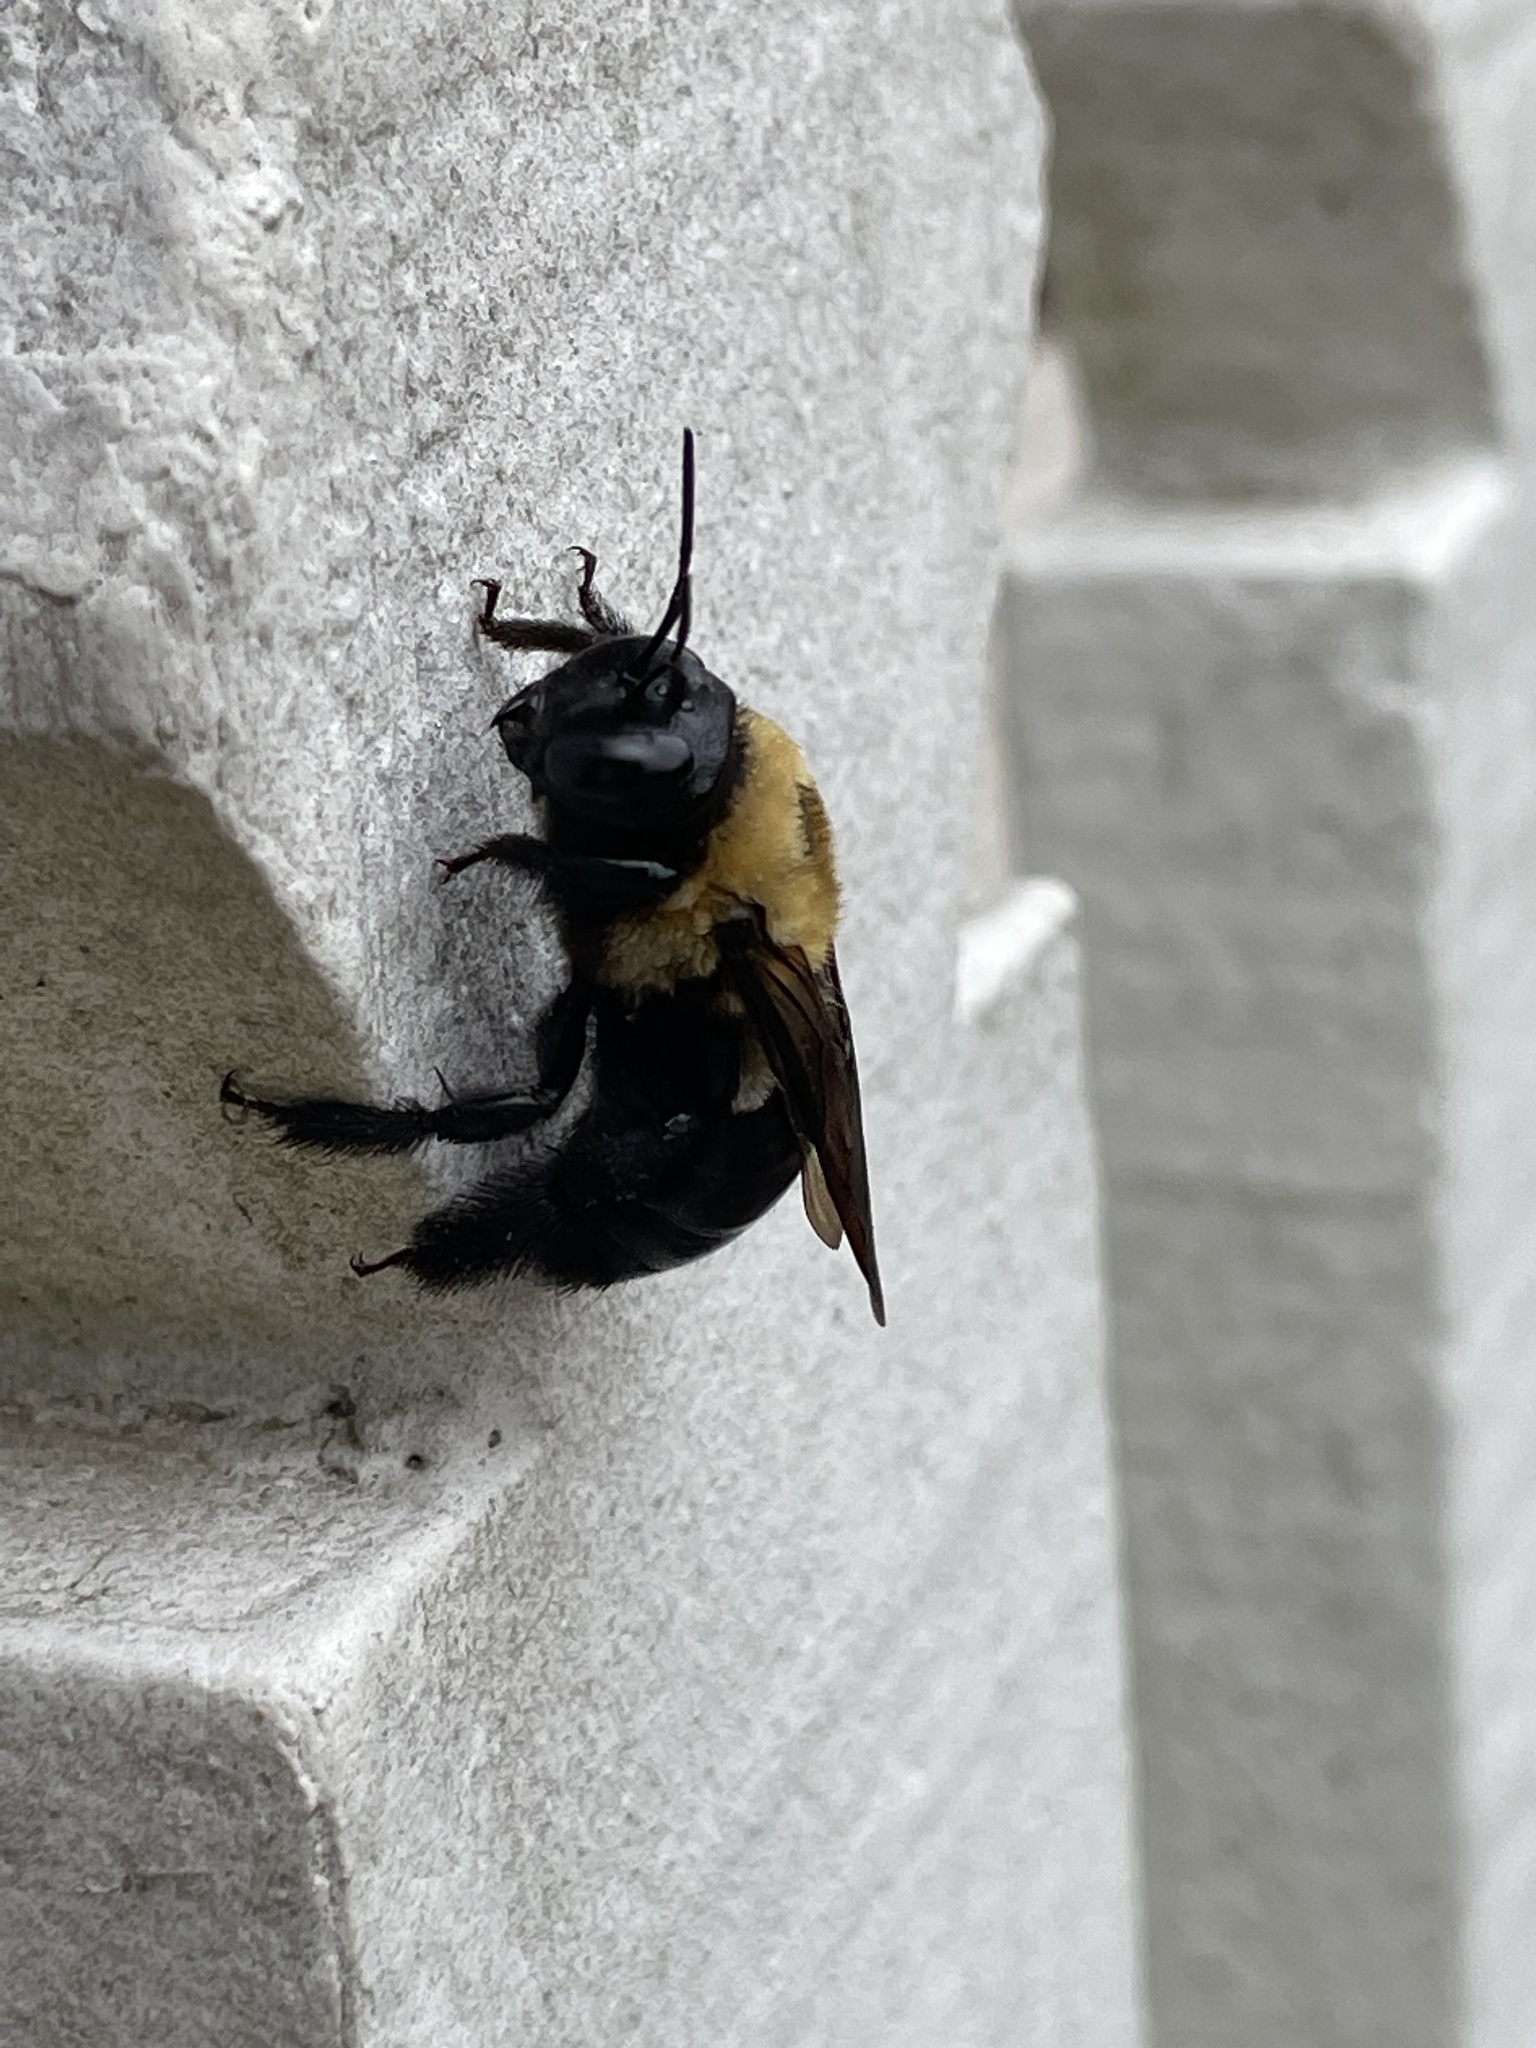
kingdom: Animalia
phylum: Arthropoda
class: Insecta
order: Hymenoptera
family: Apidae
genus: Xylocopa
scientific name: Xylocopa virginica
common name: Carpenter bee
